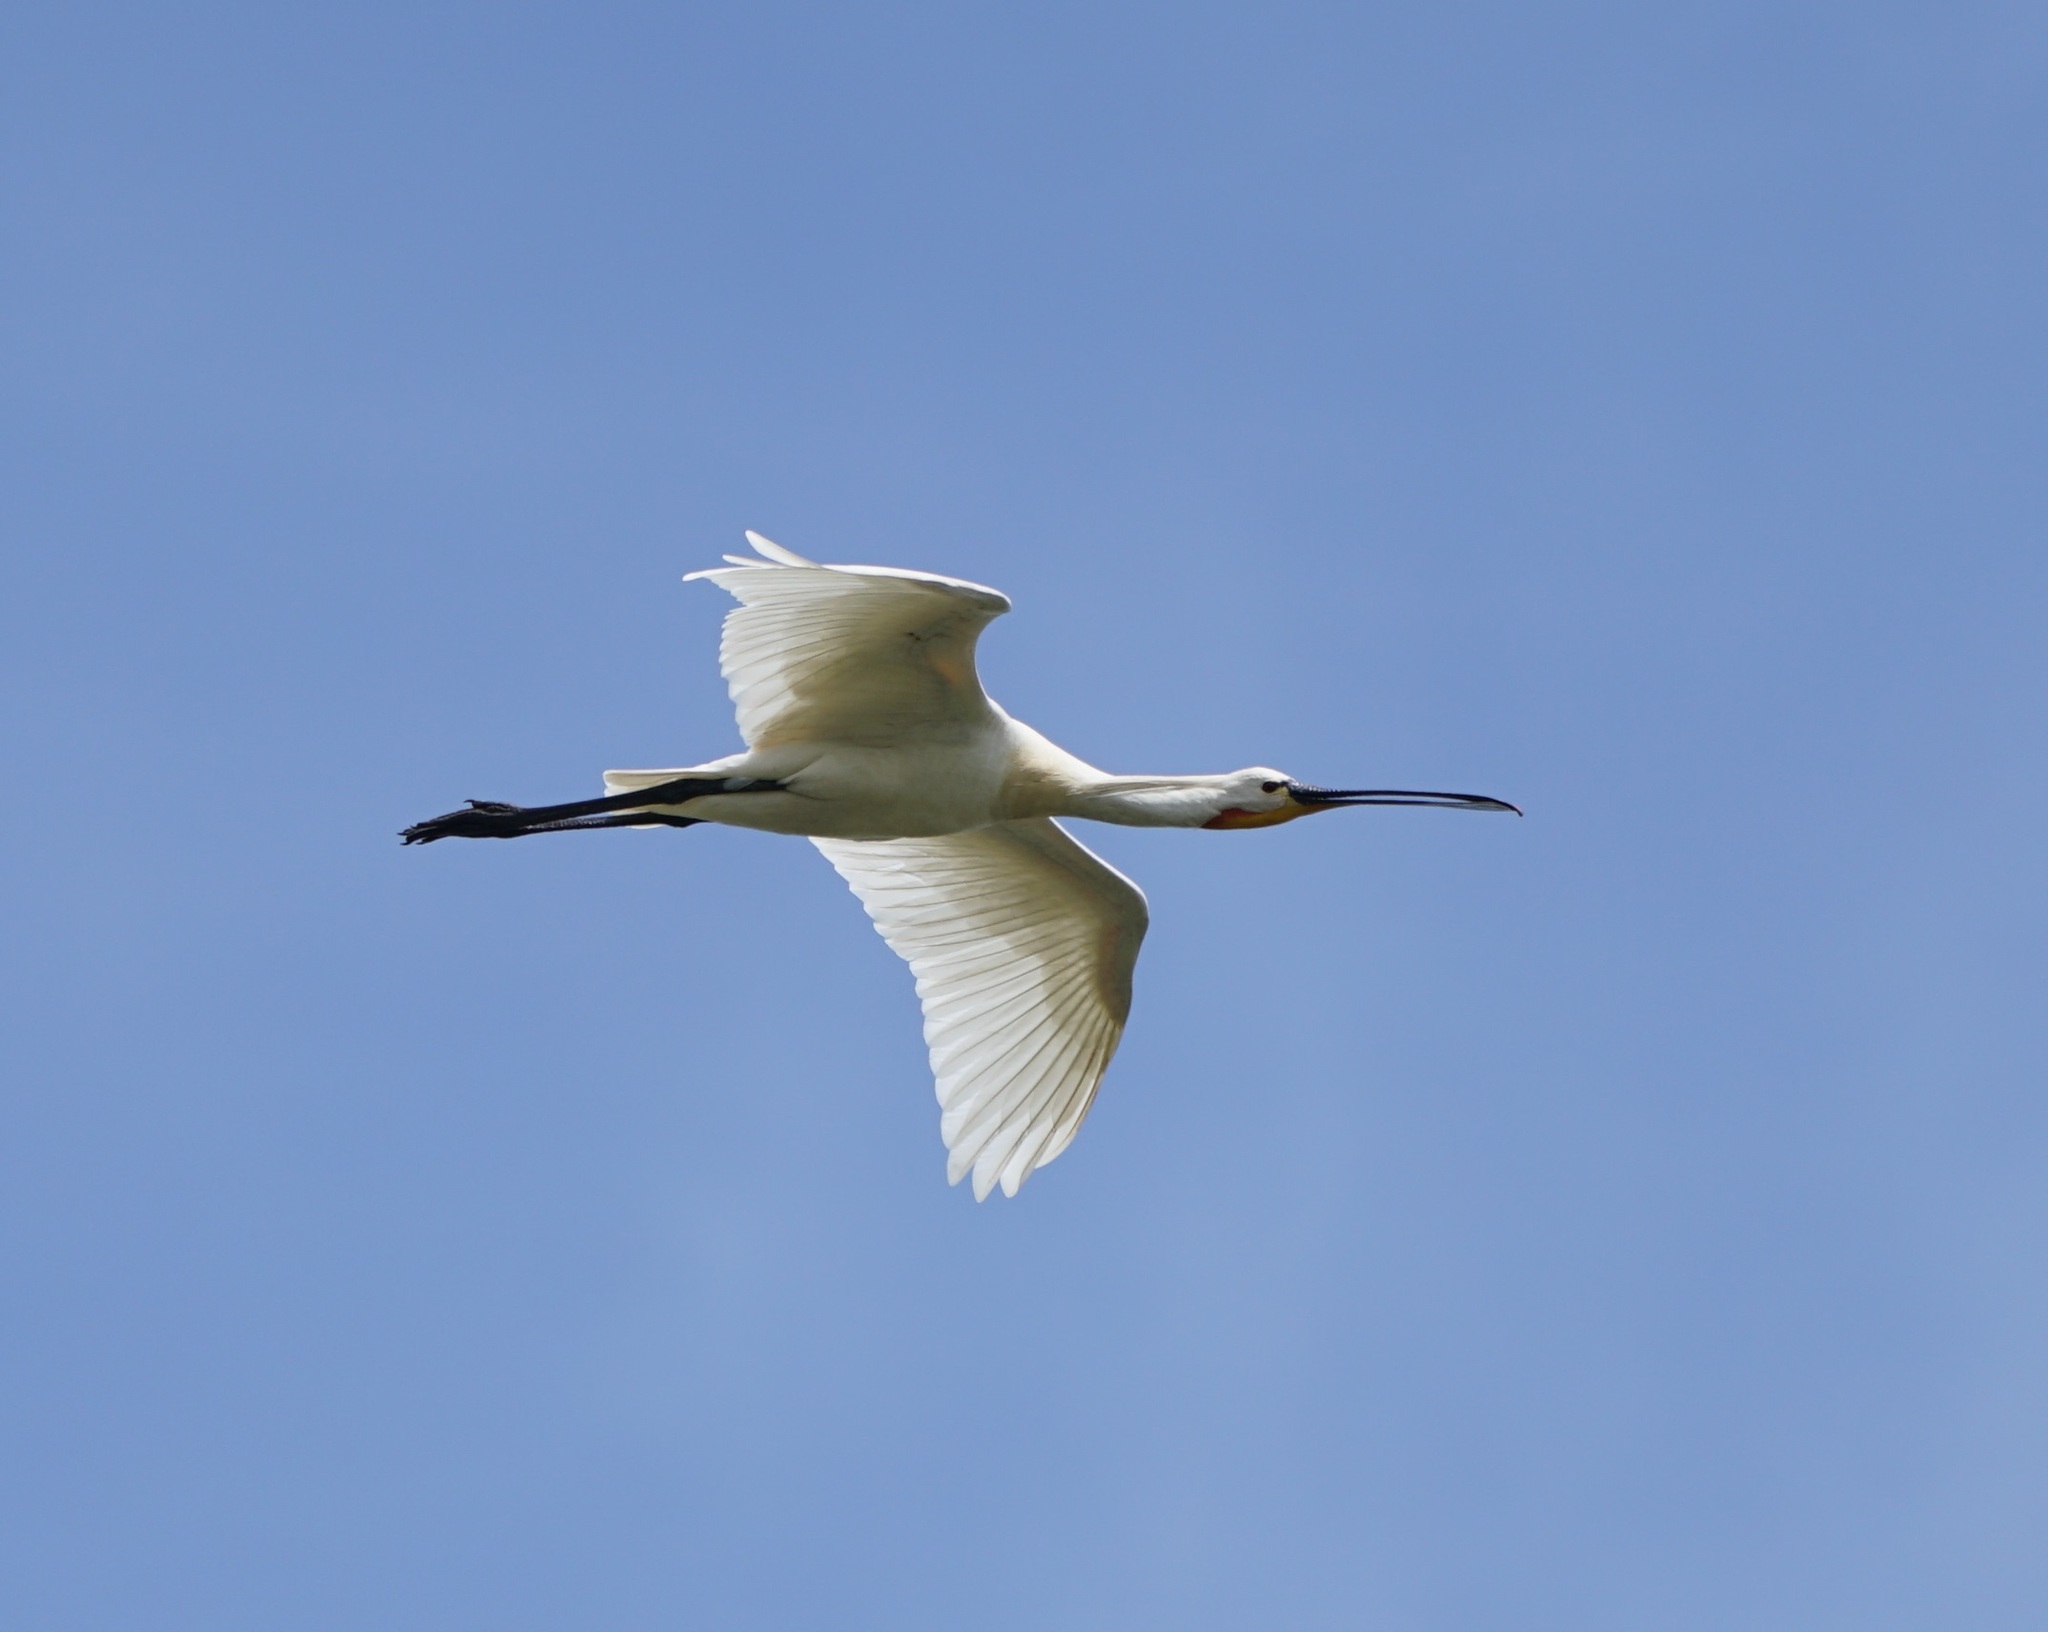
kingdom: Animalia
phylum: Chordata
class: Aves
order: Pelecaniformes
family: Threskiornithidae
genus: Platalea
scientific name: Platalea leucorodia
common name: Eurasian spoonbill
